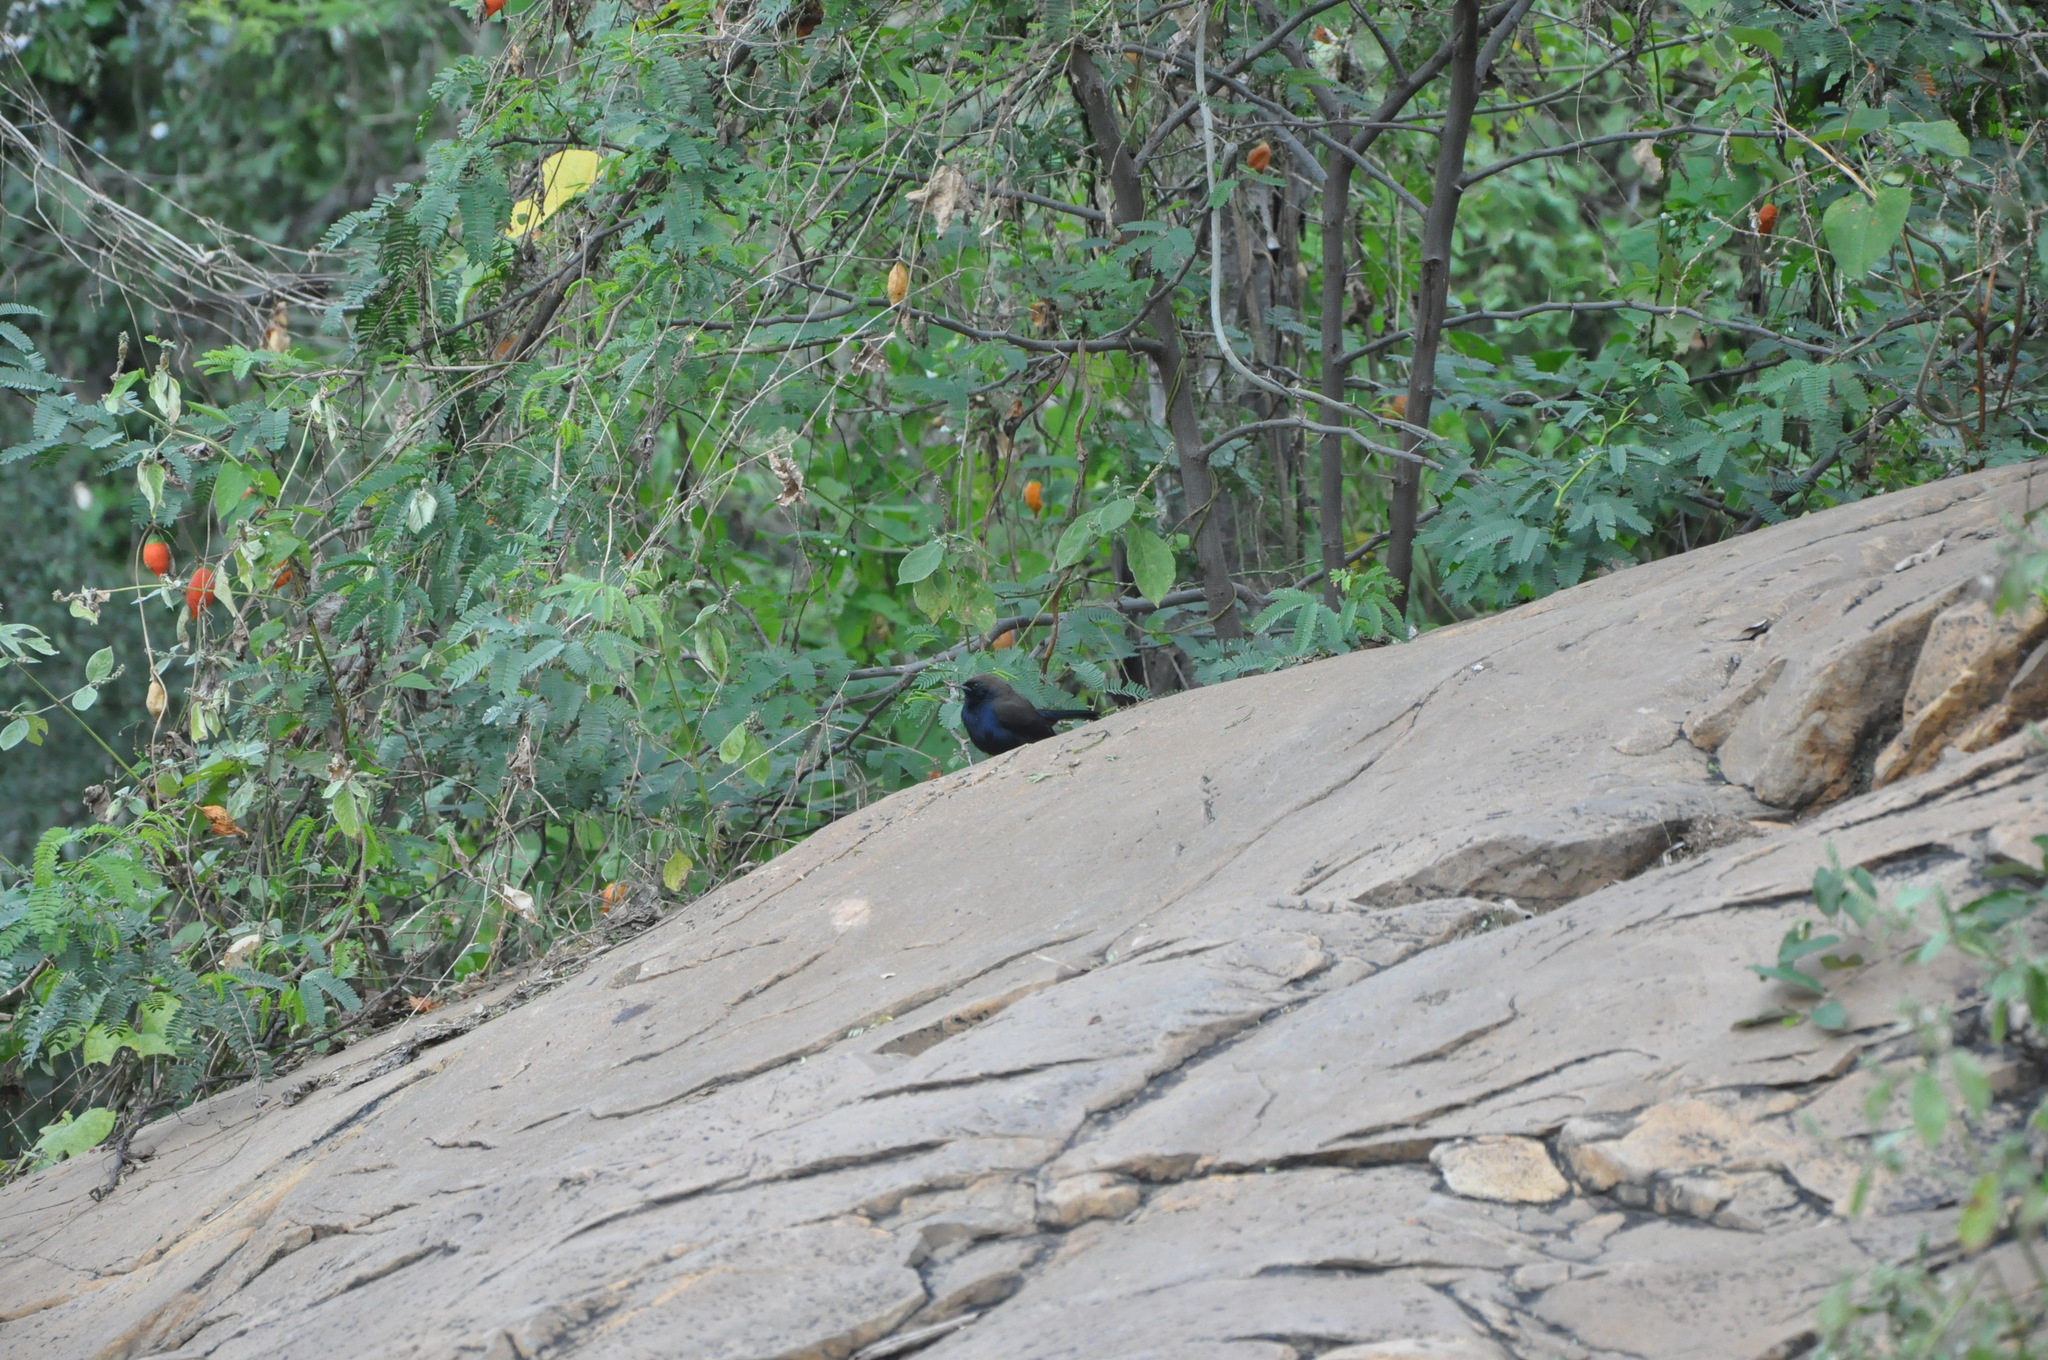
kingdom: Animalia
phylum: Chordata
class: Aves
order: Passeriformes
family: Muscicapidae
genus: Saxicoloides
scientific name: Saxicoloides fulicatus
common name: Indian robin
